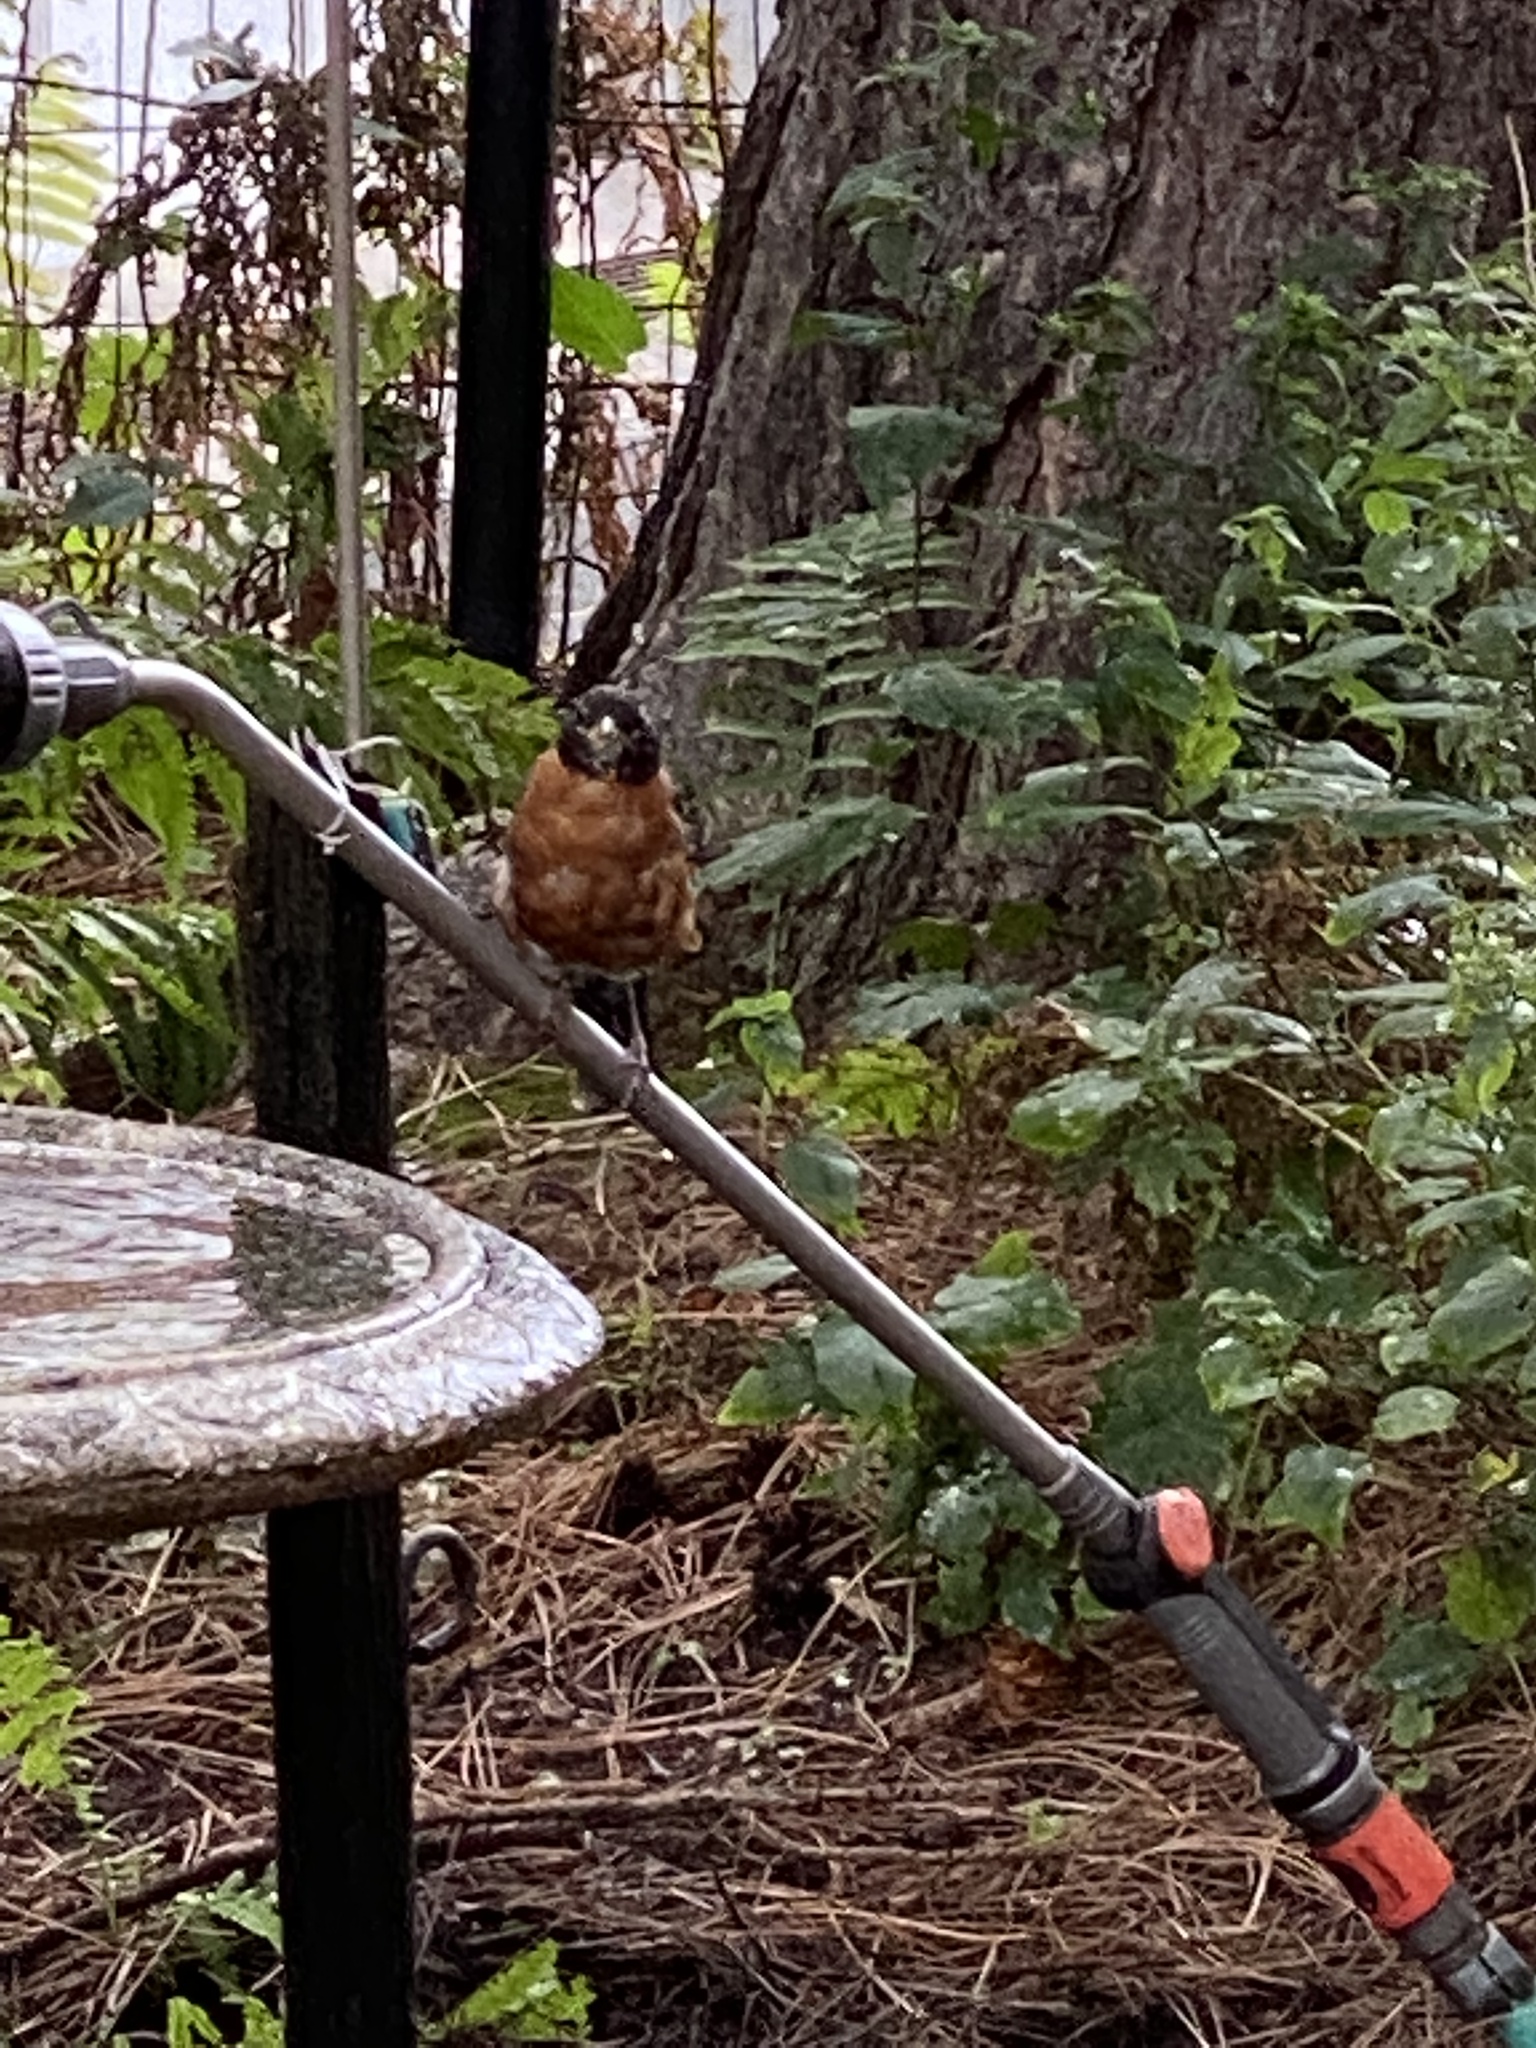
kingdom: Animalia
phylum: Chordata
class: Aves
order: Passeriformes
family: Turdidae
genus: Turdus
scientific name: Turdus migratorius
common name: American robin
